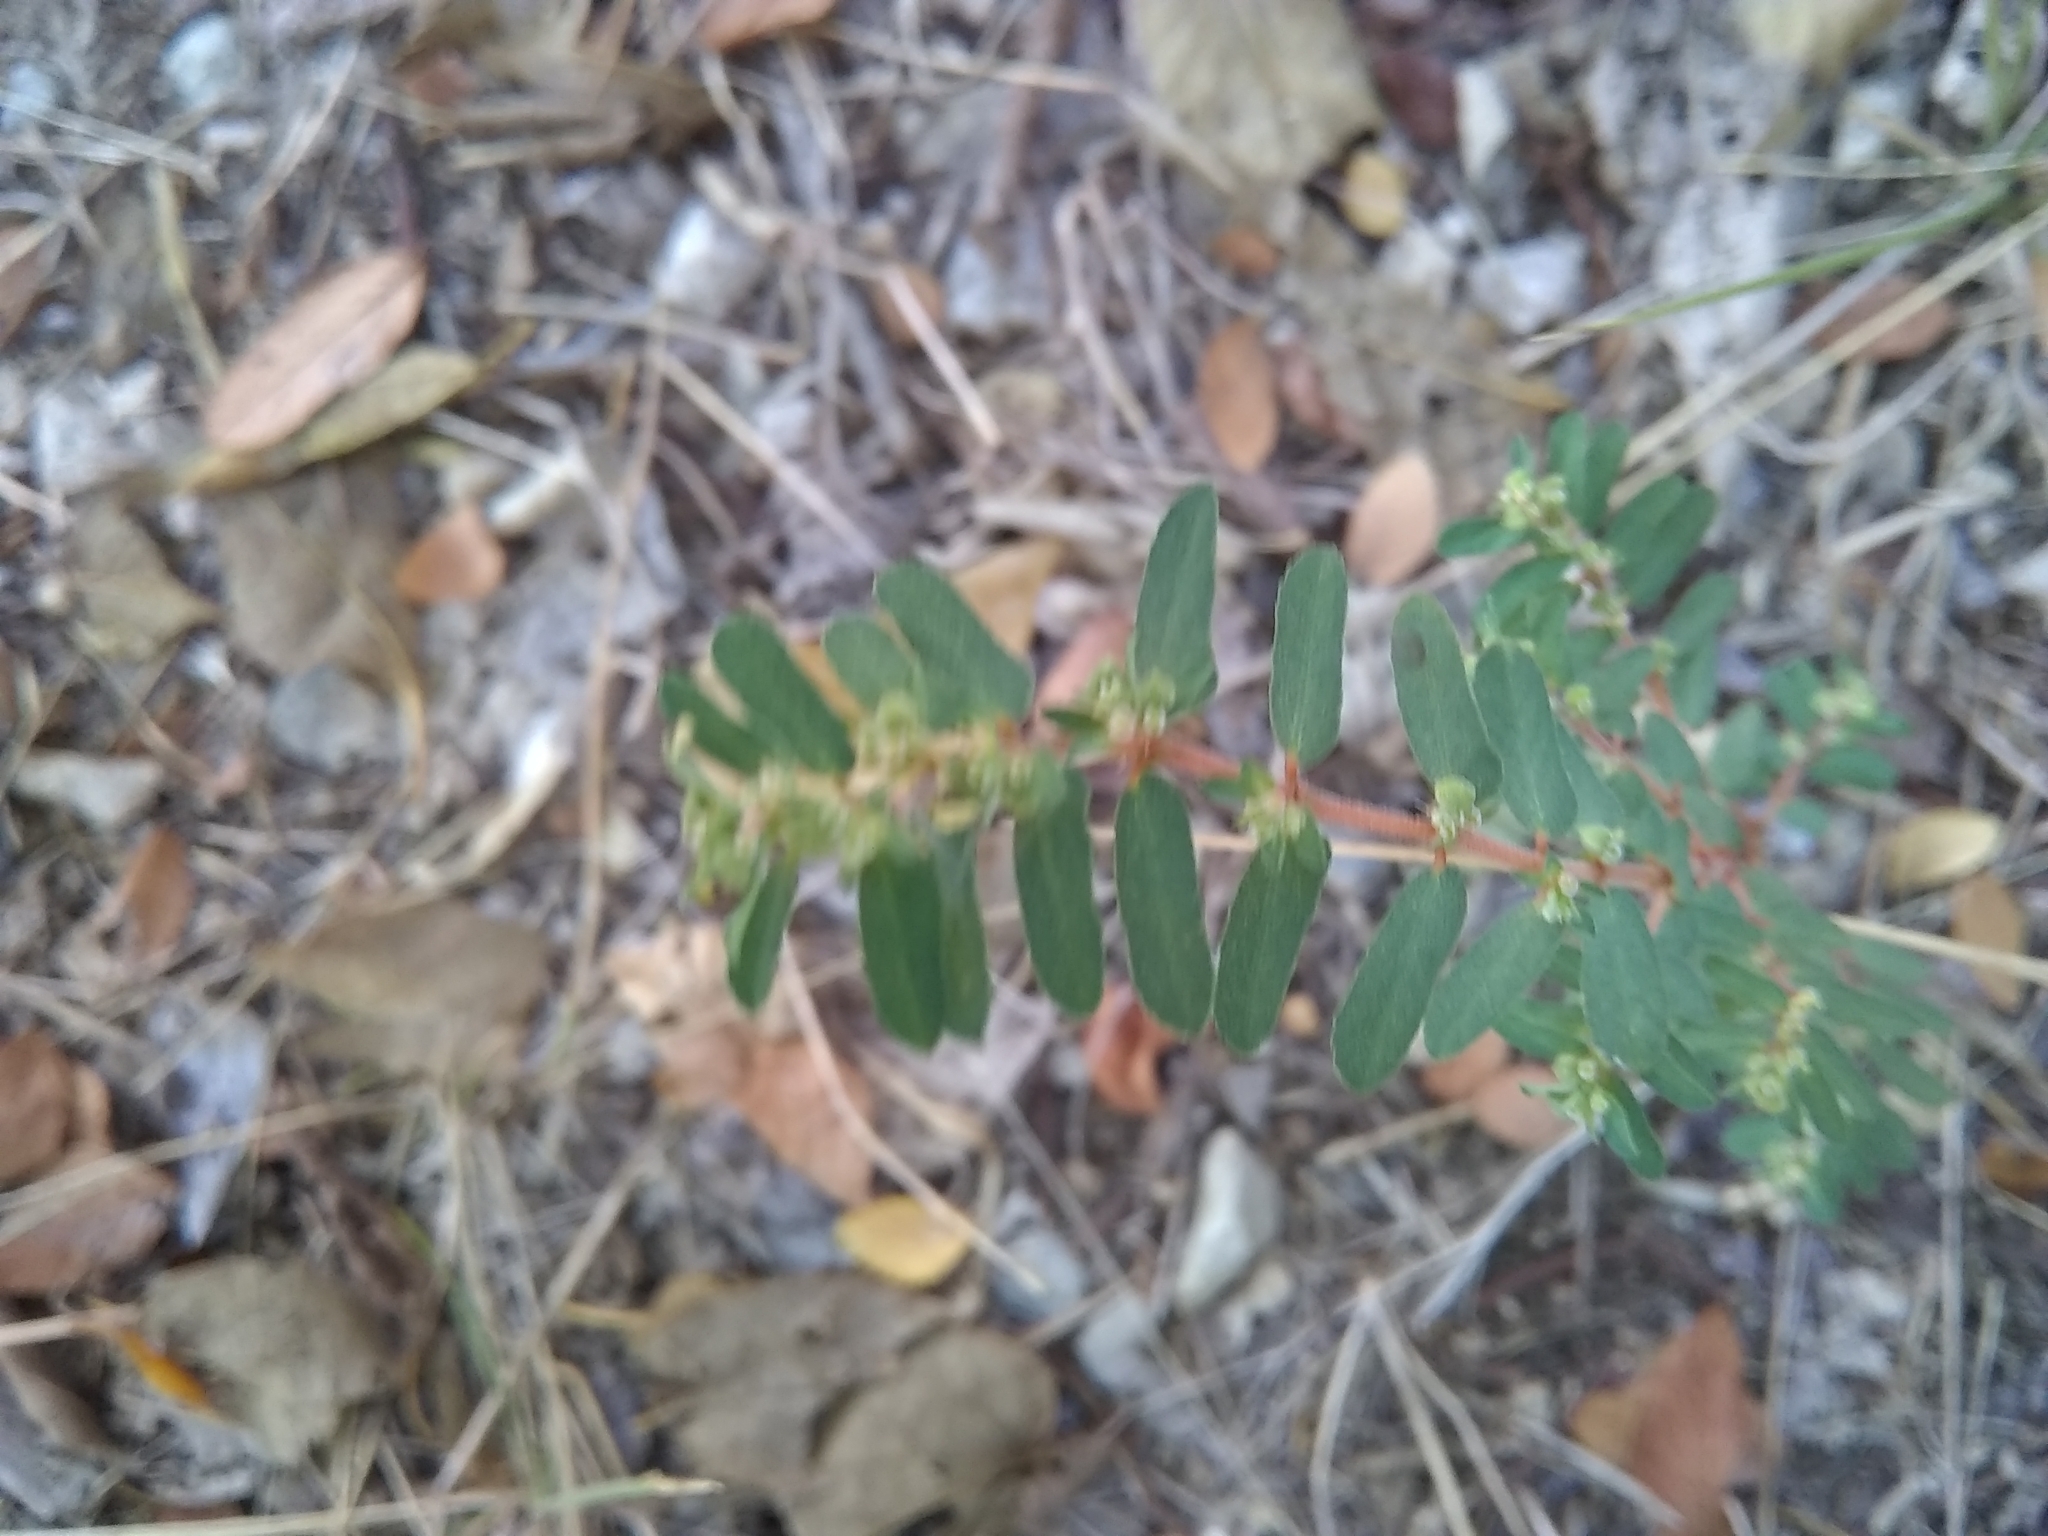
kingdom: Plantae
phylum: Tracheophyta
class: Magnoliopsida
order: Malpighiales
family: Euphorbiaceae
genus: Euphorbia
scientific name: Euphorbia maculata
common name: Spotted spurge
